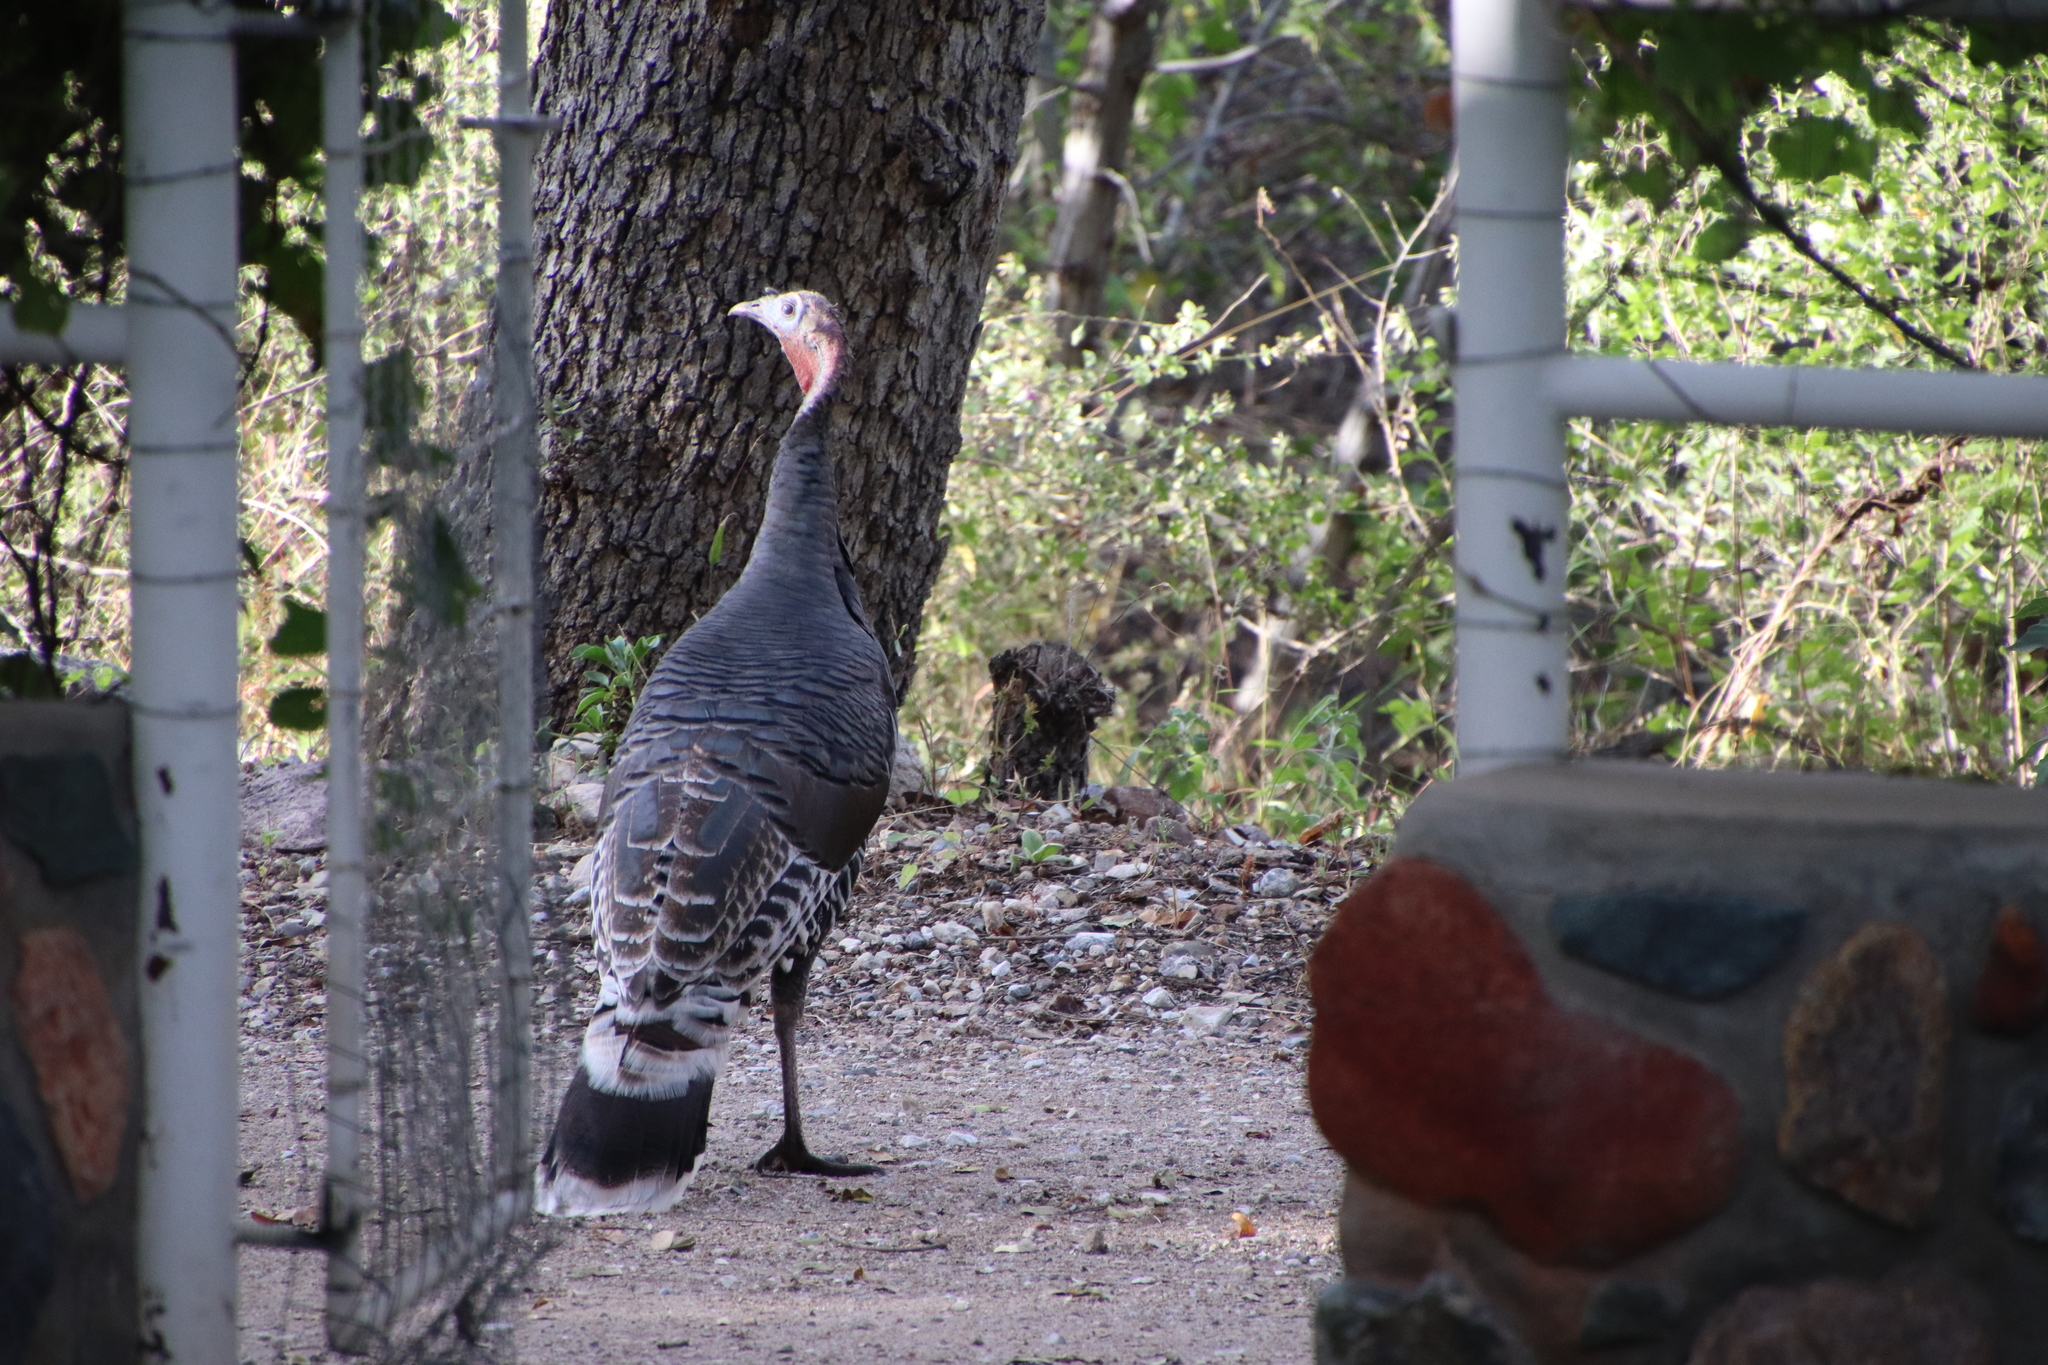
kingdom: Animalia
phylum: Chordata
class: Aves
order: Galliformes
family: Phasianidae
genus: Meleagris
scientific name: Meleagris gallopavo
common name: Wild turkey
